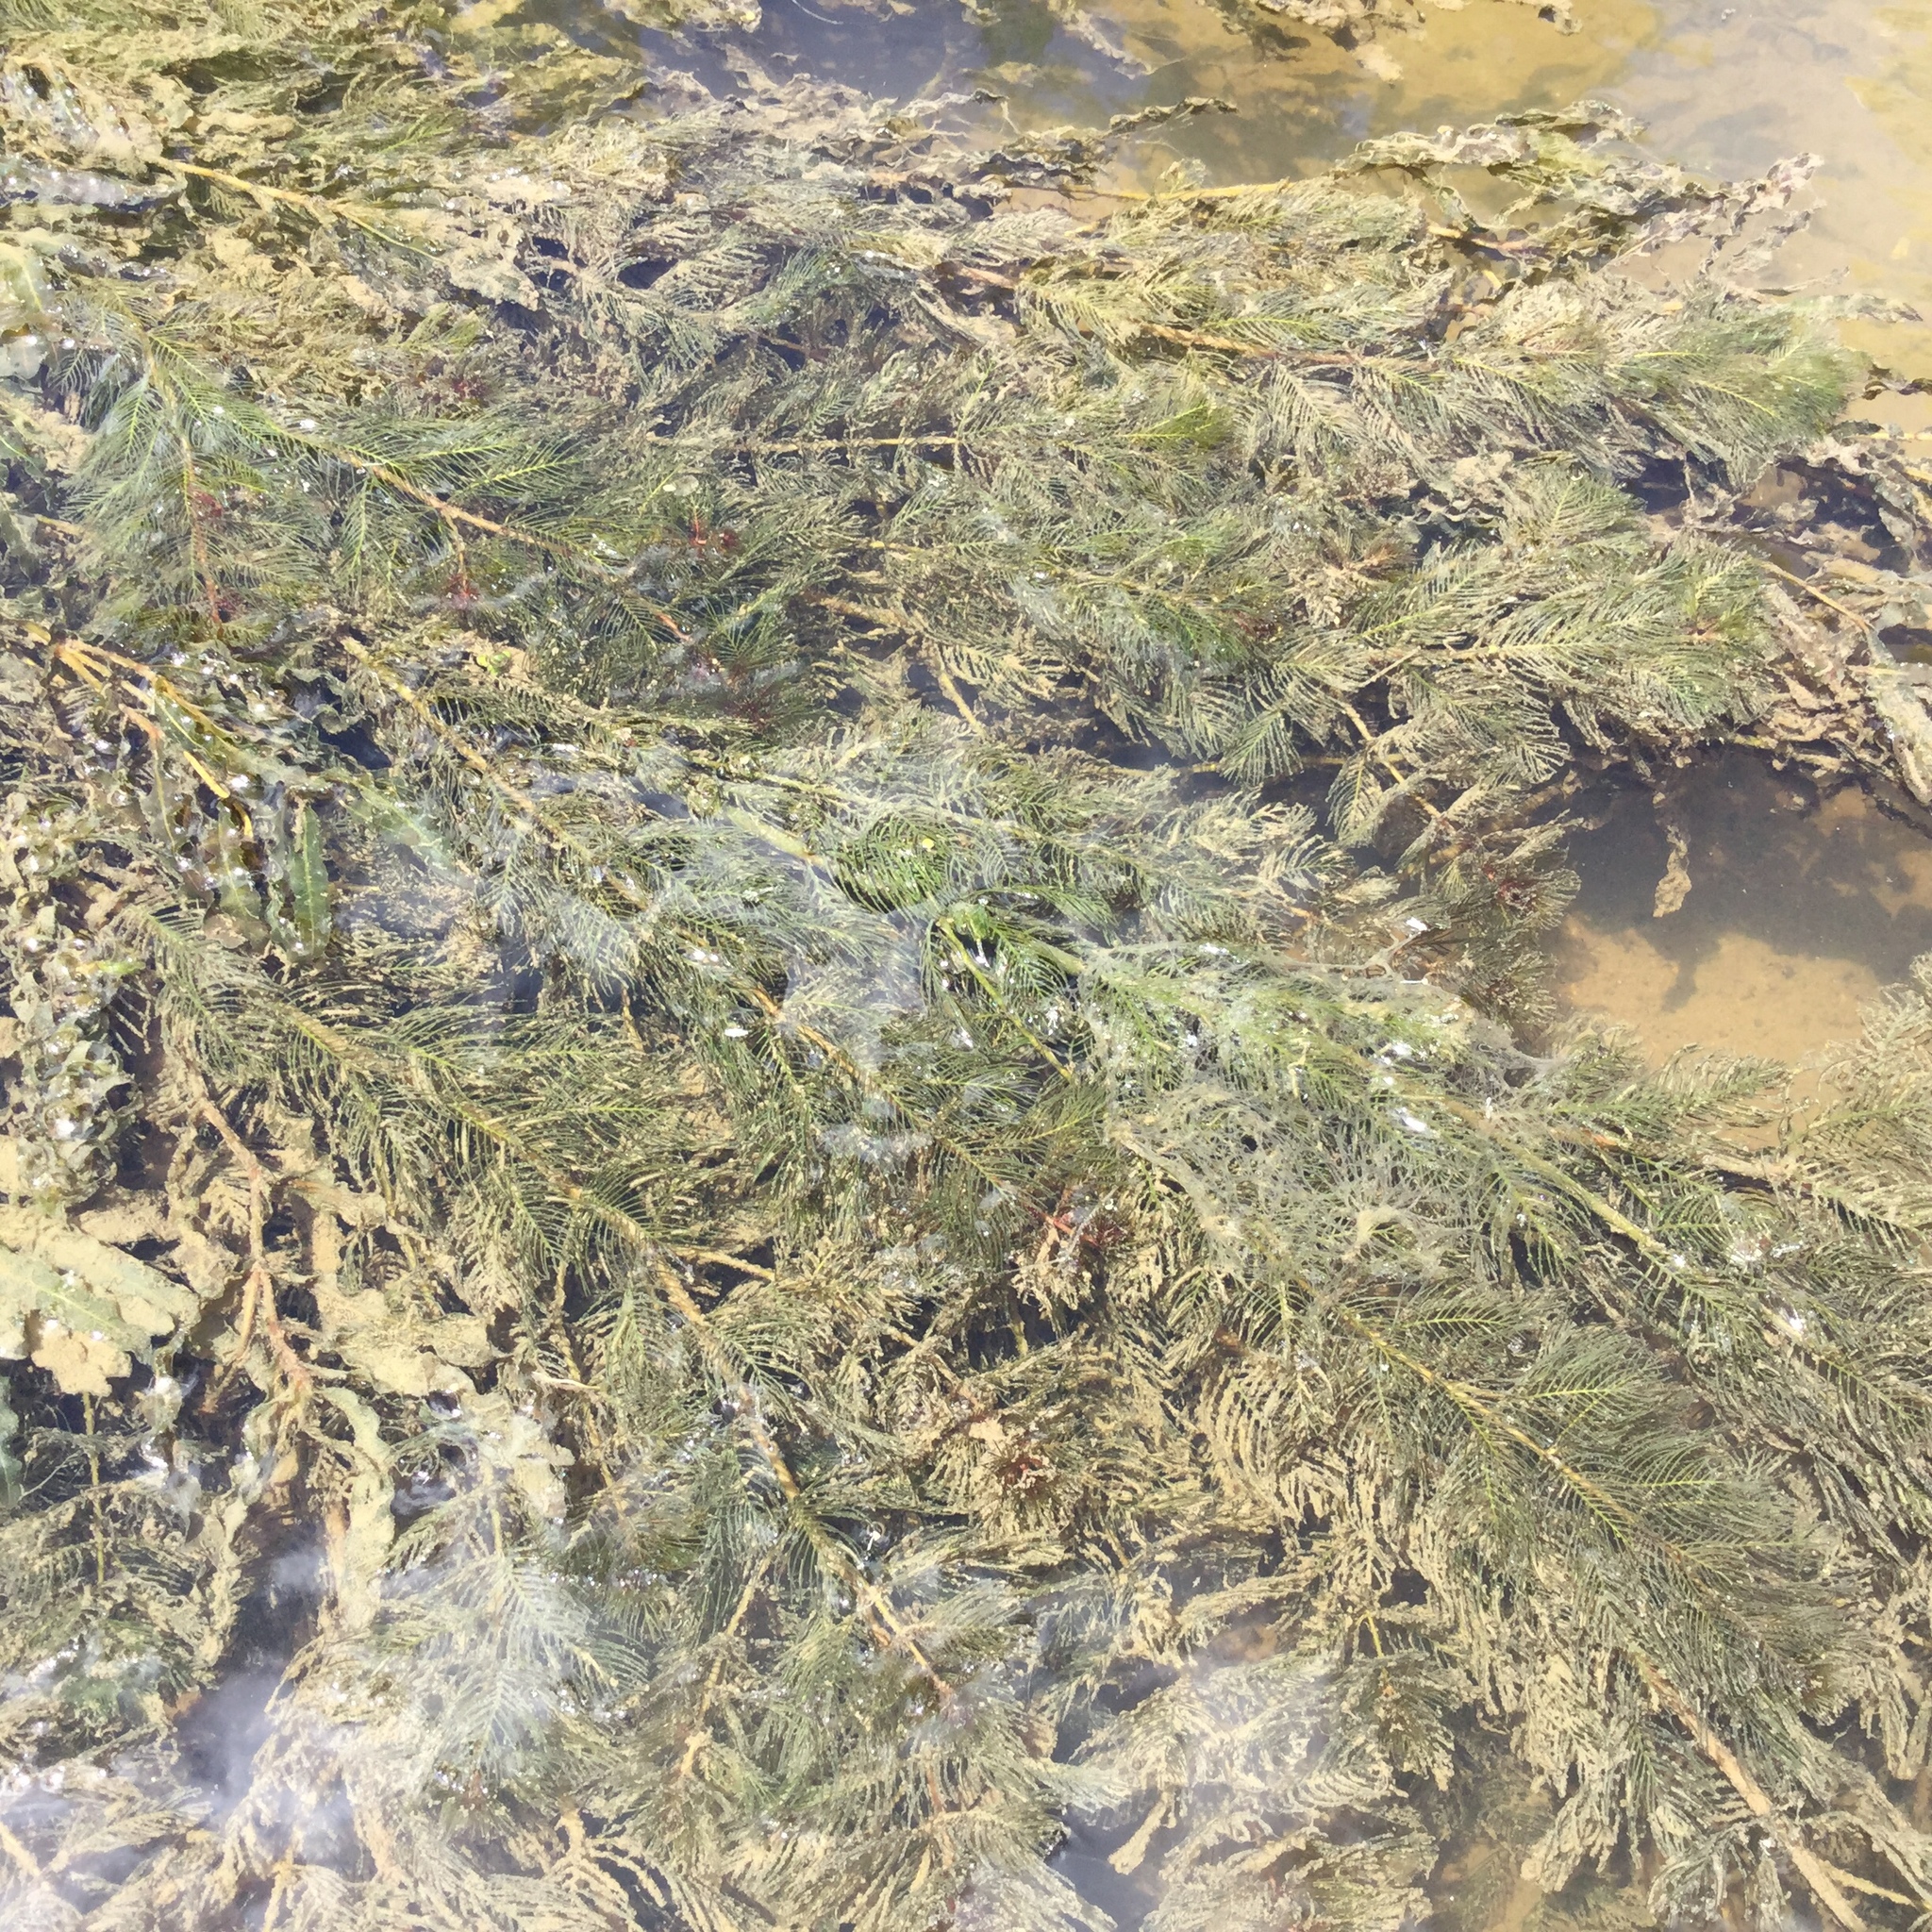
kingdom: Plantae
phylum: Tracheophyta
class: Magnoliopsida
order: Saxifragales
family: Haloragaceae
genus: Myriophyllum
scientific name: Myriophyllum spicatum
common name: Spiked water-milfoil
